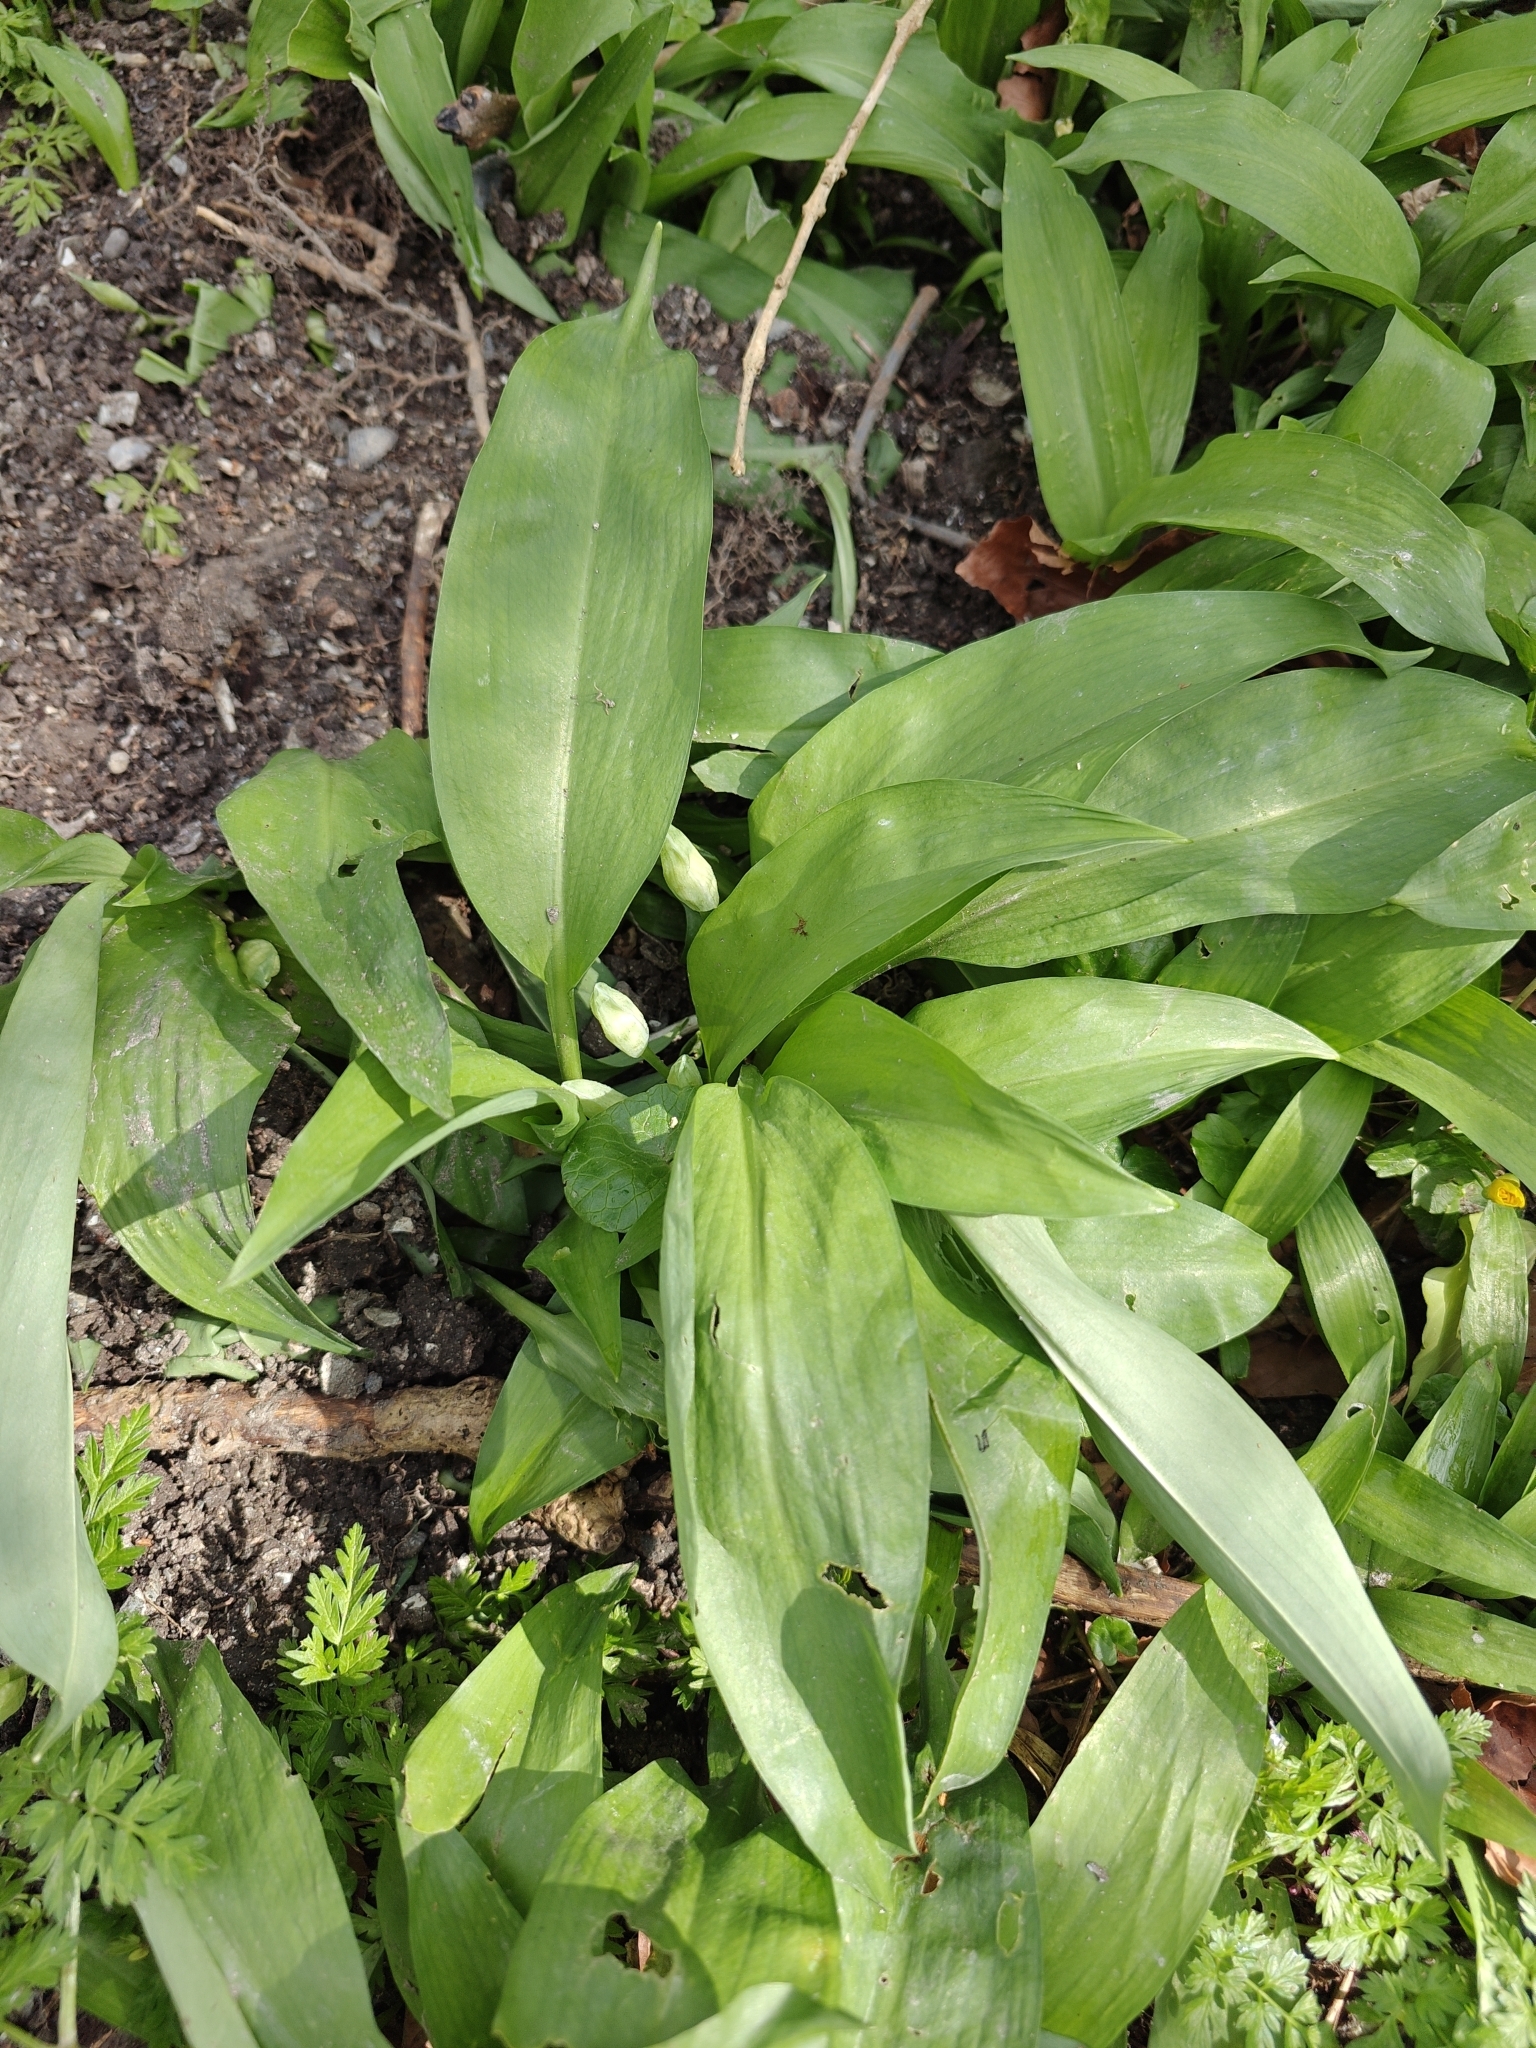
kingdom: Plantae
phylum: Tracheophyta
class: Liliopsida
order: Asparagales
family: Amaryllidaceae
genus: Allium
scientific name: Allium ursinum
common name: Ramsons
